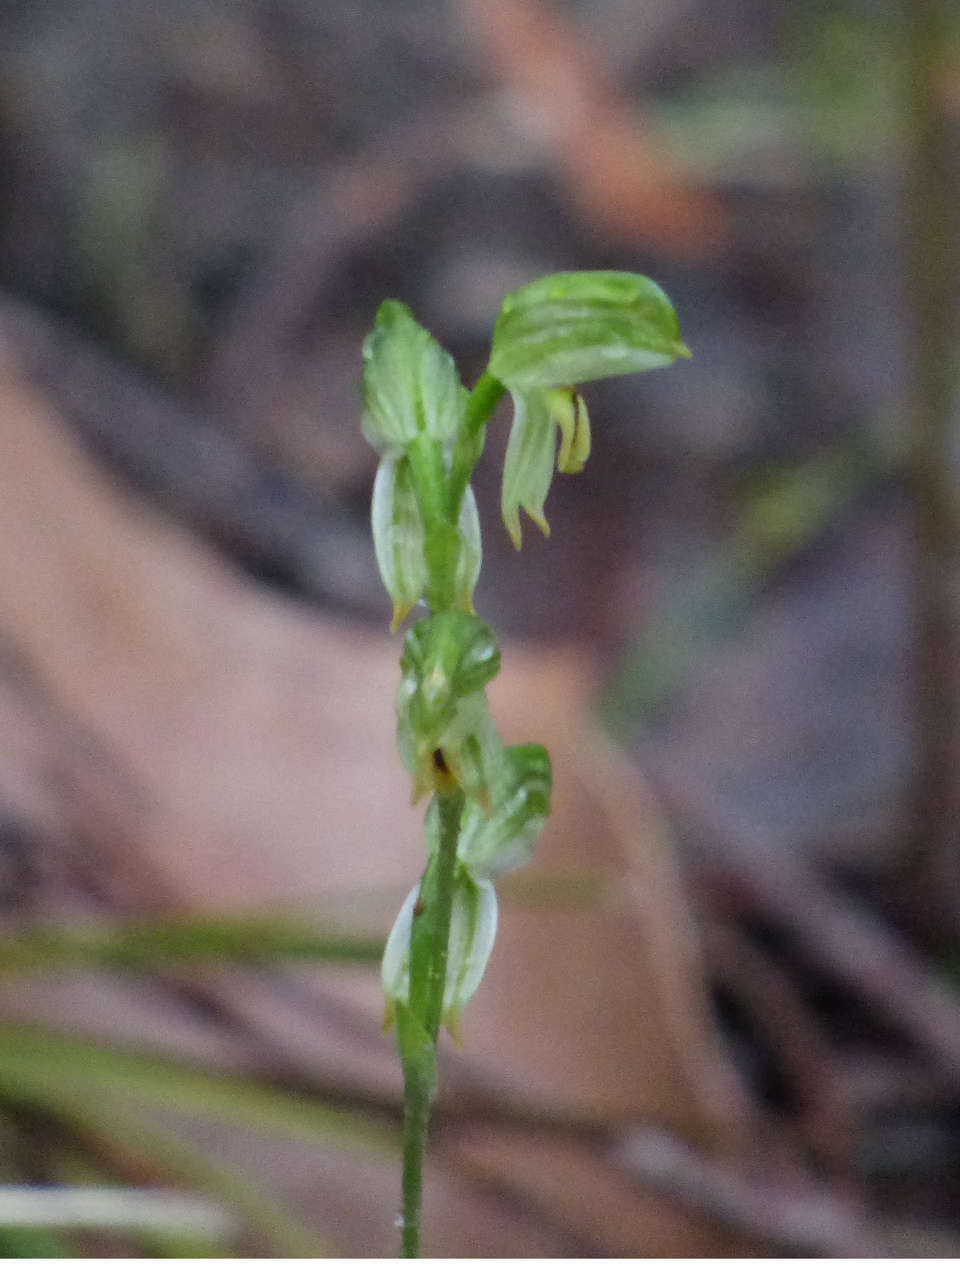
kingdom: Plantae
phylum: Tracheophyta
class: Liliopsida
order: Asparagales
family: Orchidaceae
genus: Pterostylis
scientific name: Pterostylis melagramma
